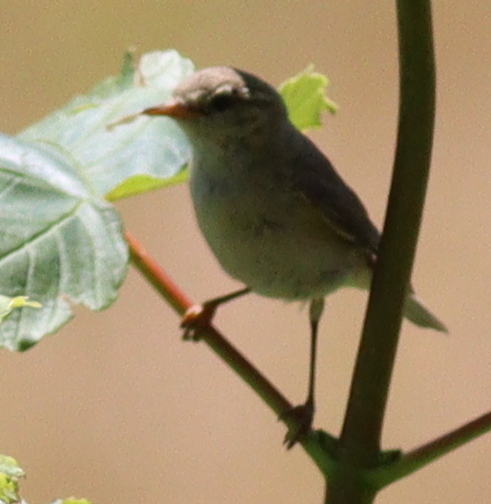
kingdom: Animalia
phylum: Chordata
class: Aves
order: Passeriformes
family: Phylloscopidae
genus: Phylloscopus
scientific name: Phylloscopus trochilus
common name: Willow warbler
